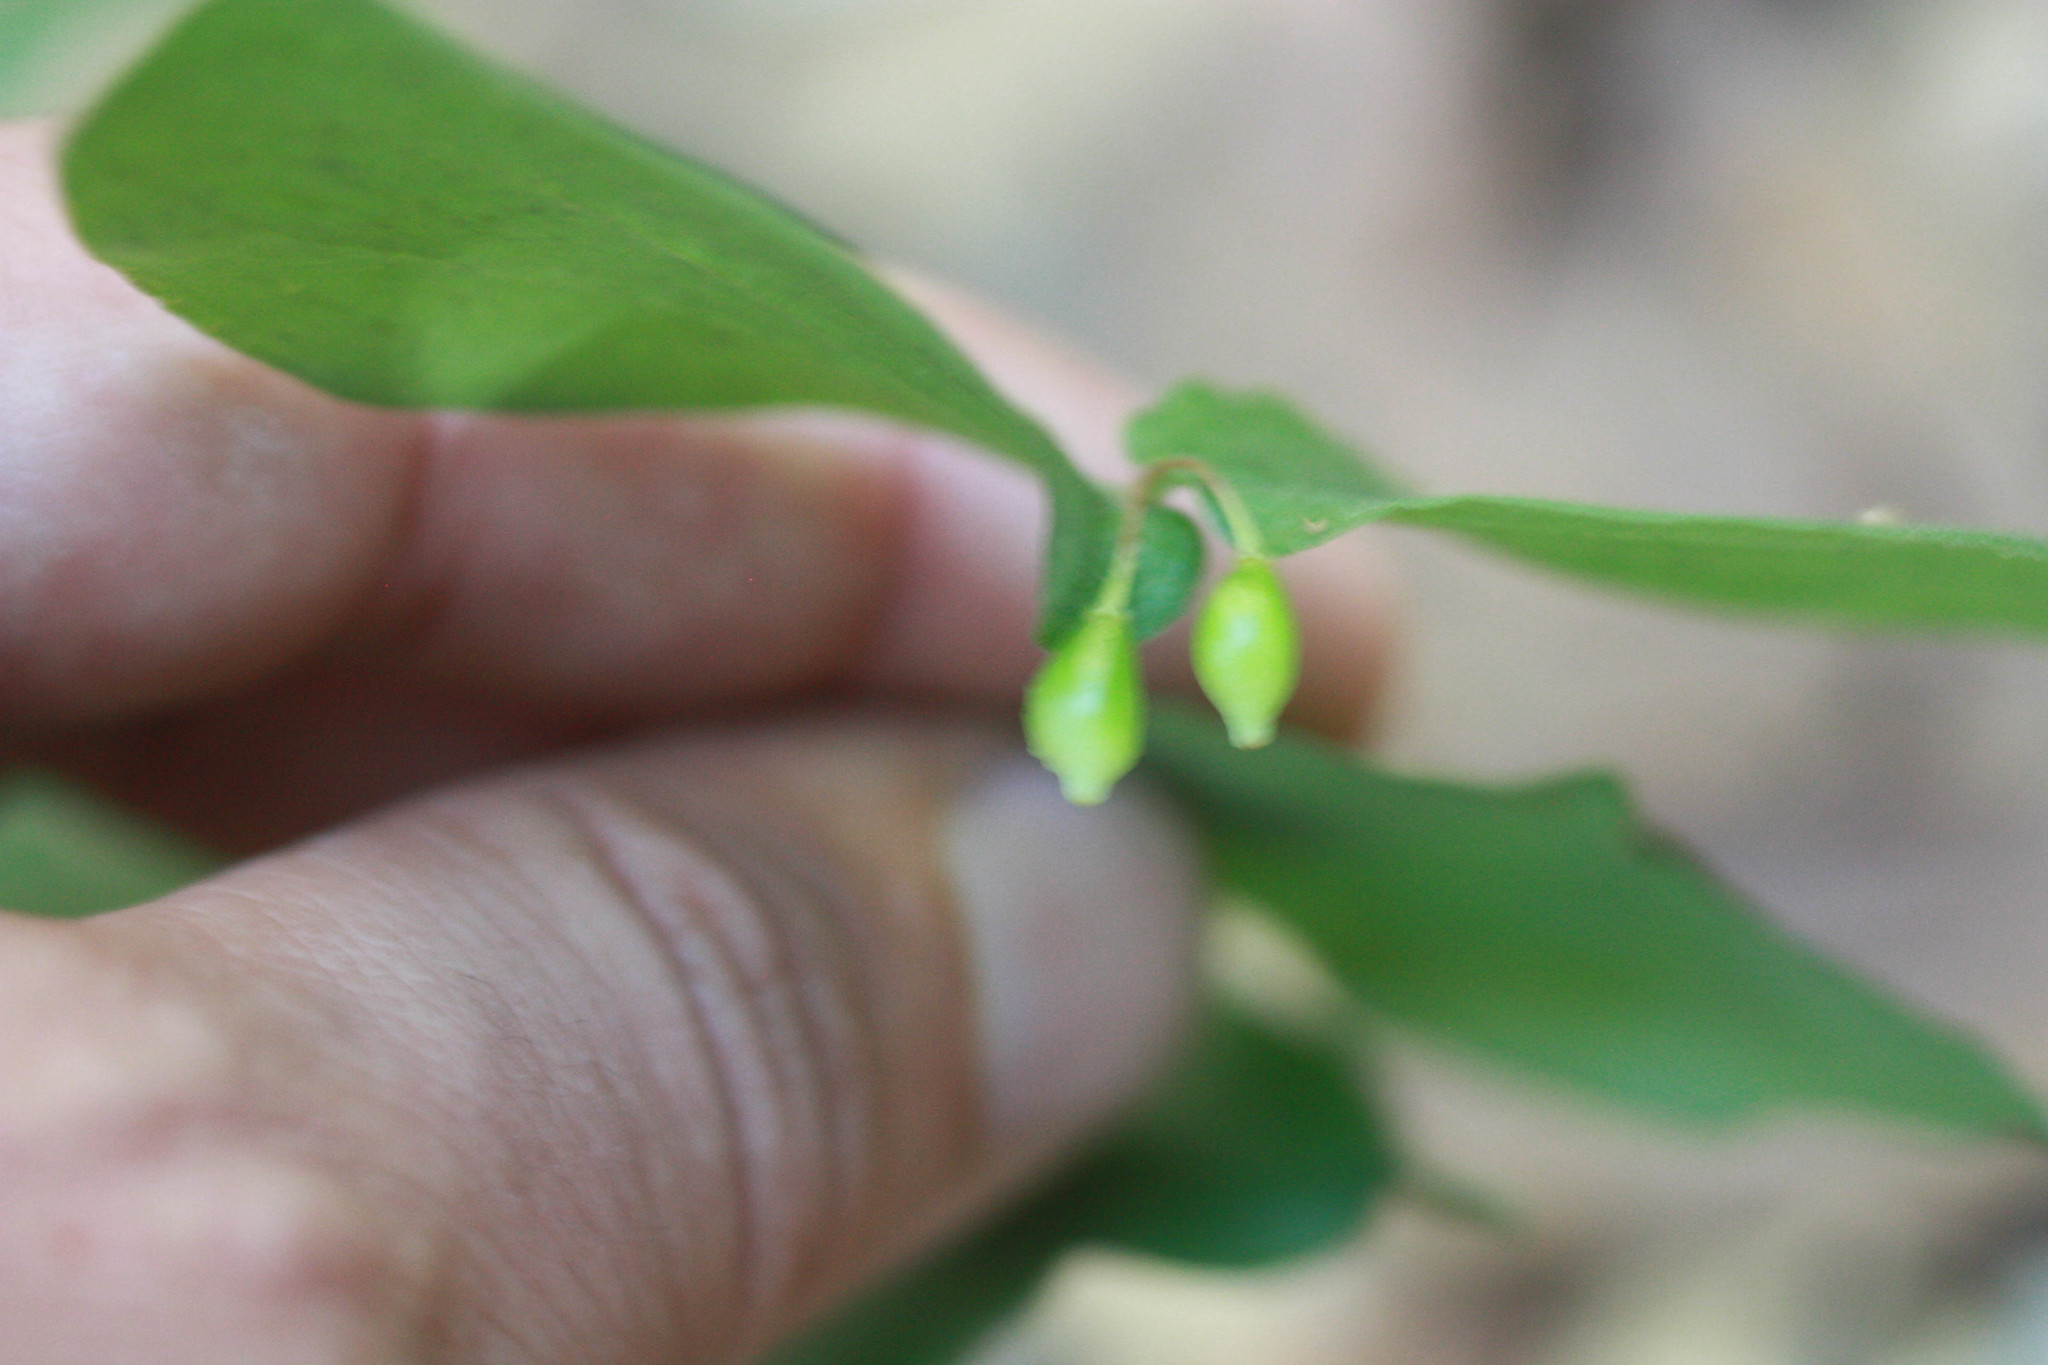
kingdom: Plantae
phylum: Tracheophyta
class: Liliopsida
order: Liliales
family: Liliaceae
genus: Prosartes
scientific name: Prosartes hookeri
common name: Fairy-bells
